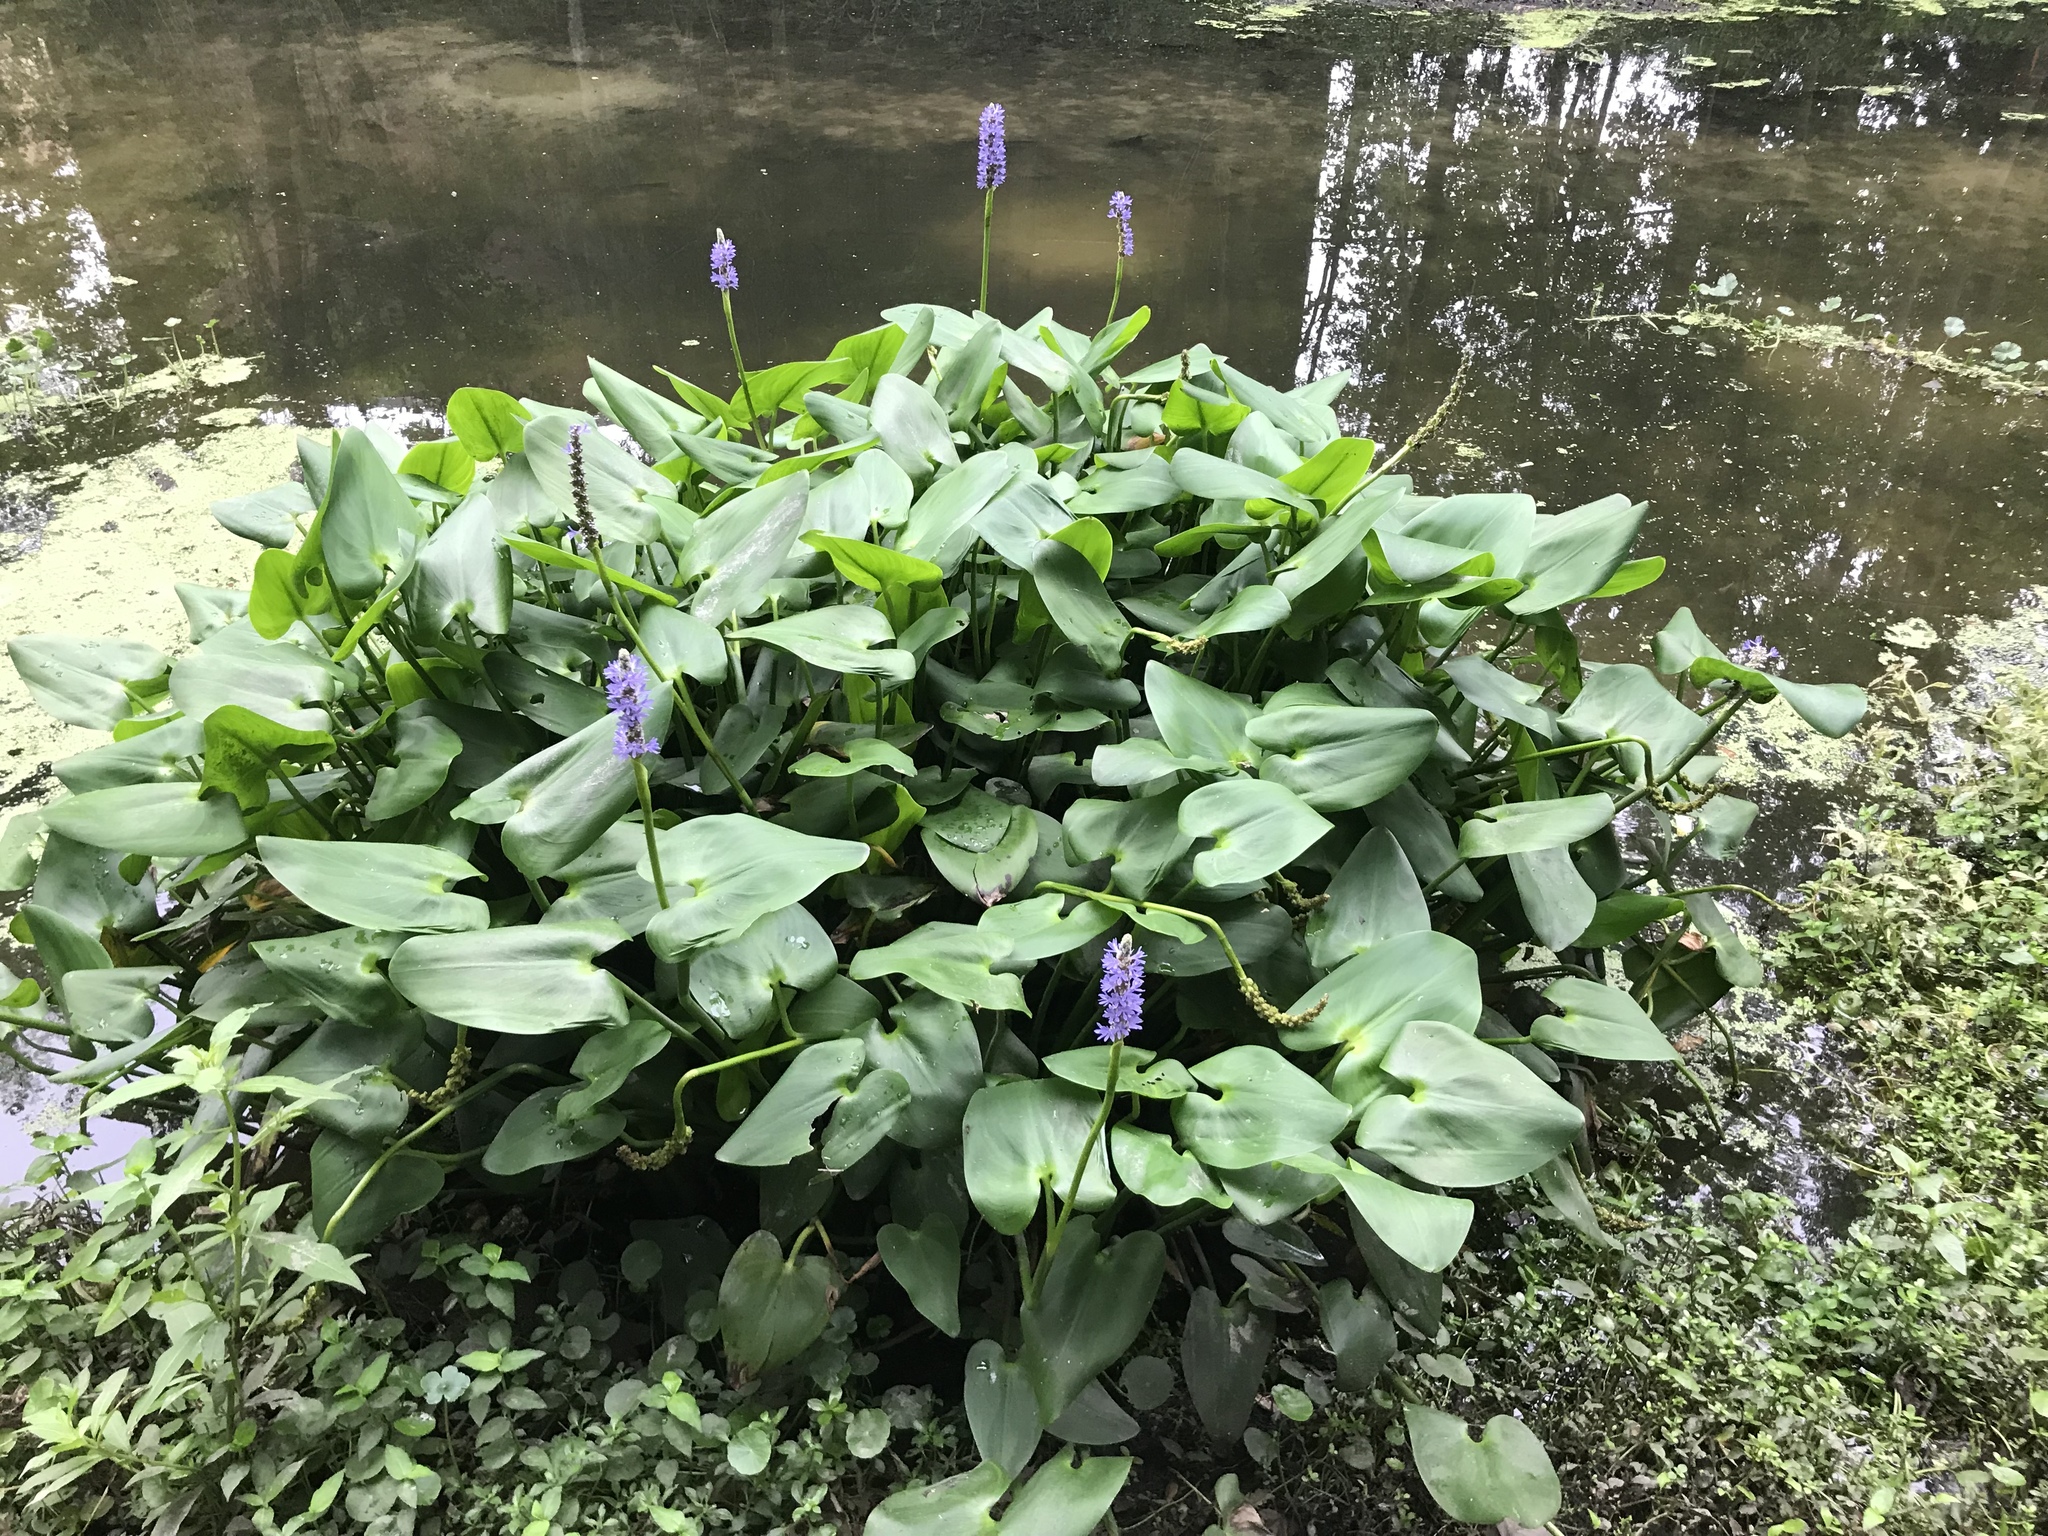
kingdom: Plantae
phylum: Tracheophyta
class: Liliopsida
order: Commelinales
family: Pontederiaceae
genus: Pontederia
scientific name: Pontederia cordata
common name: Pickerelweed
